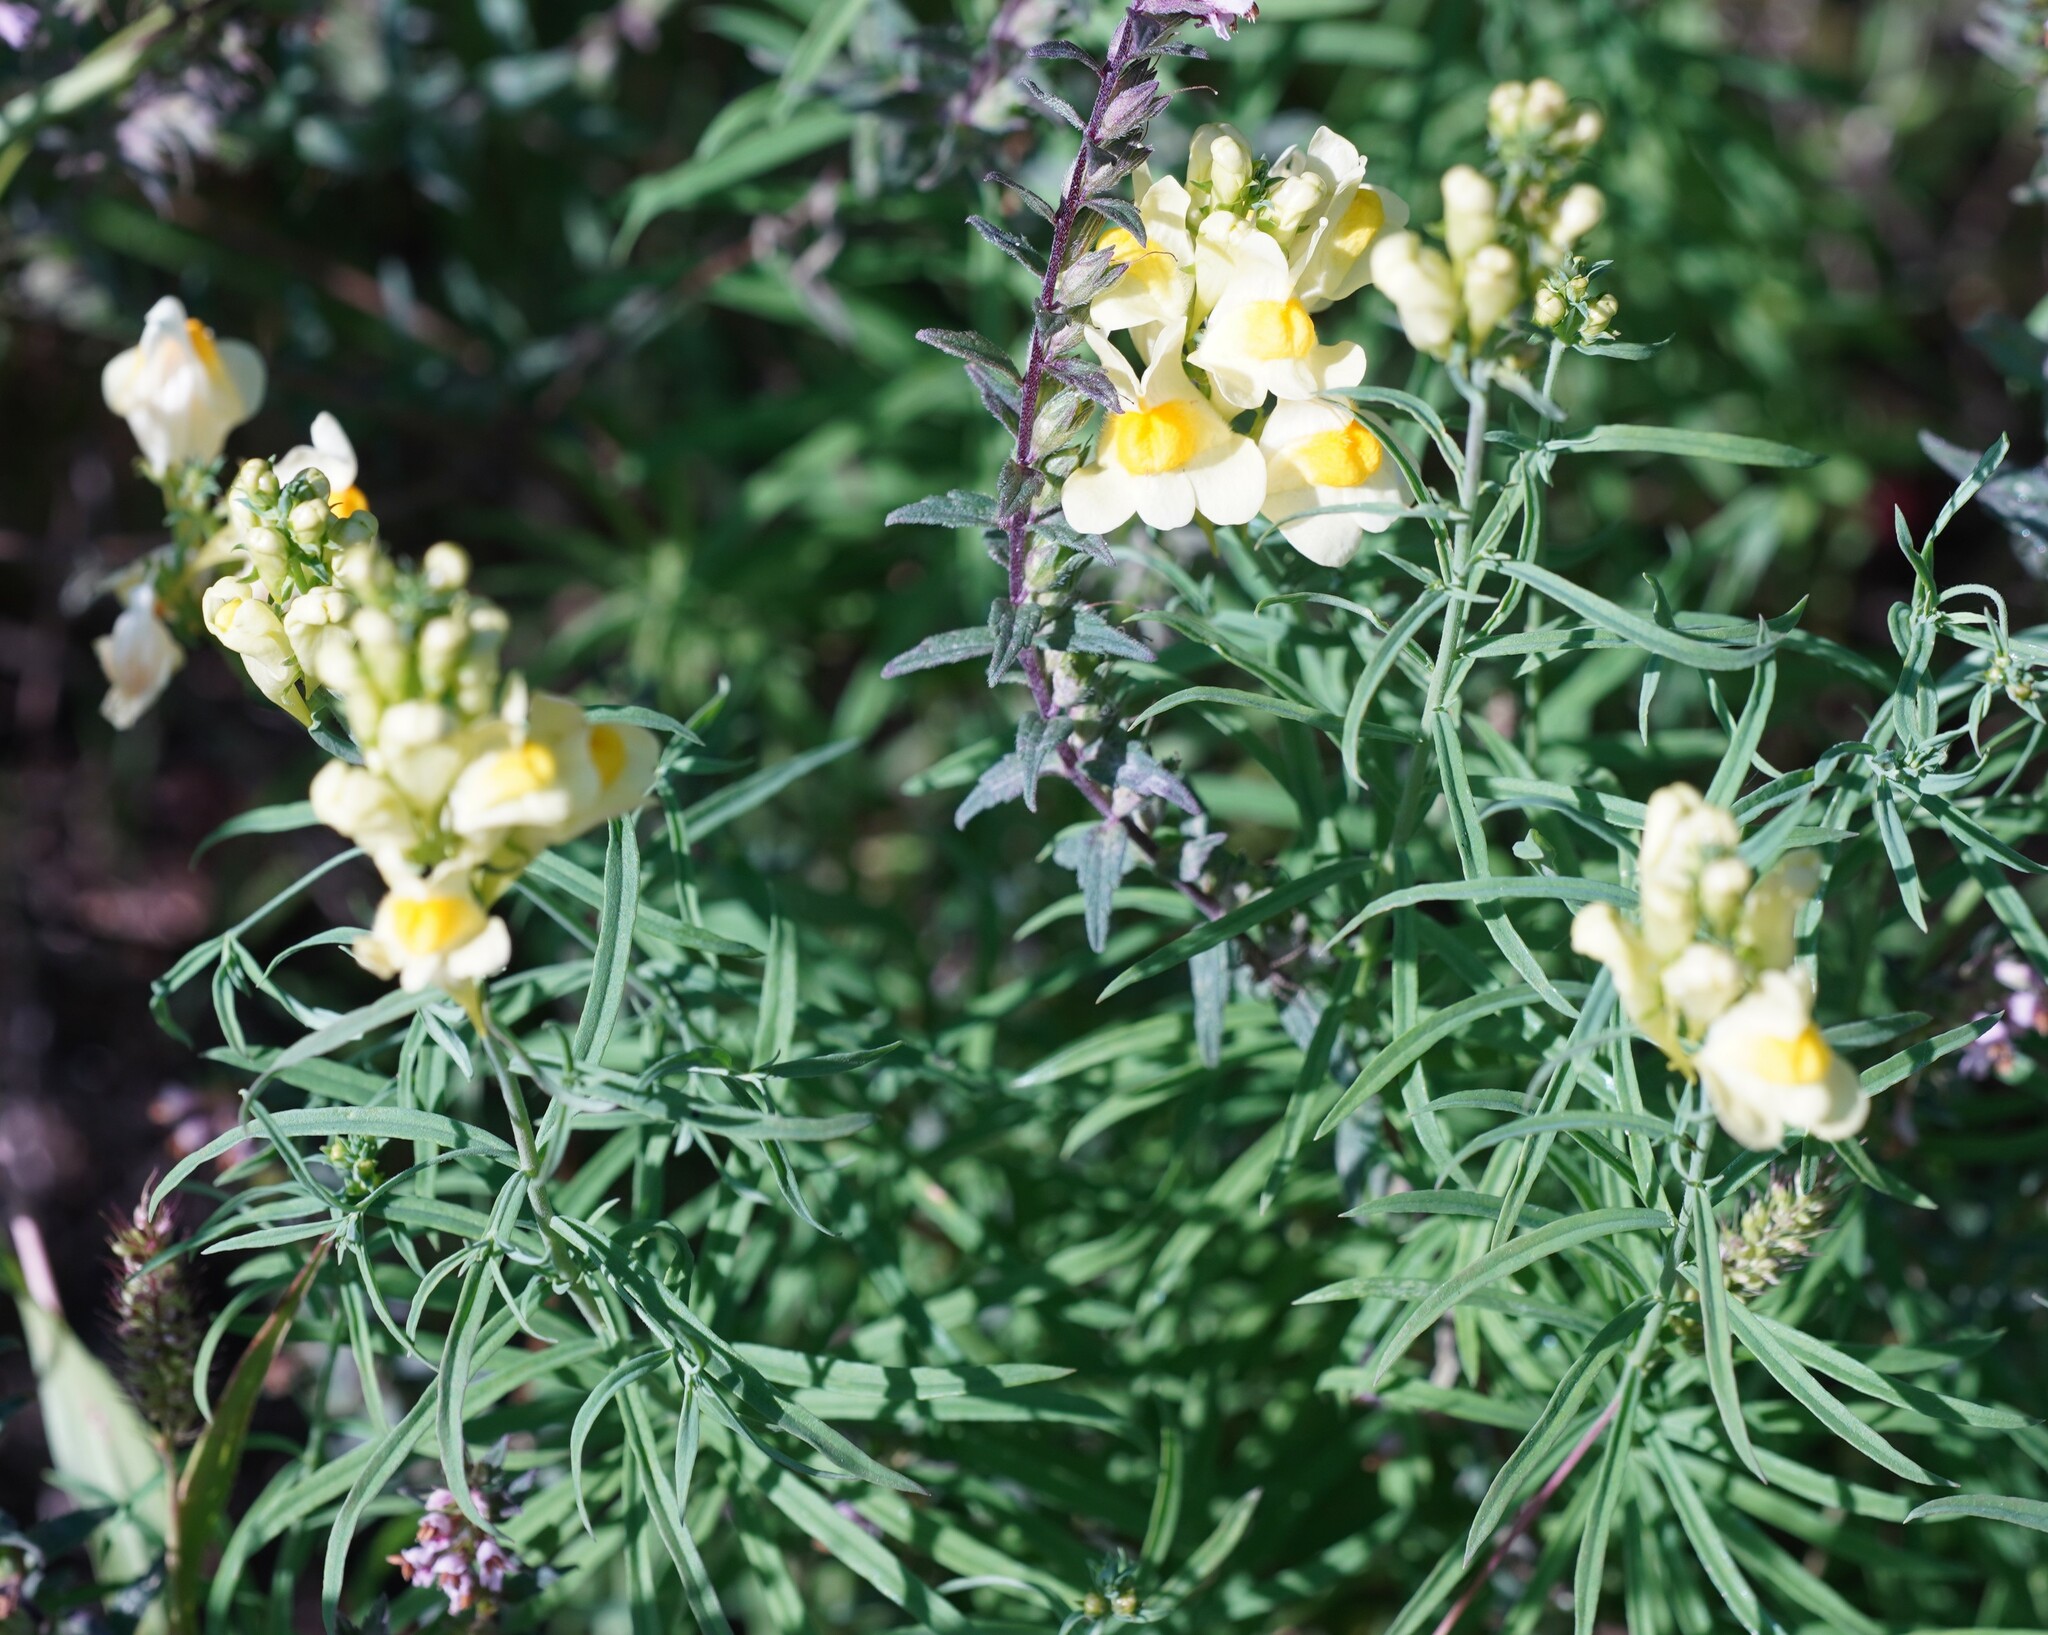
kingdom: Plantae
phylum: Tracheophyta
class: Magnoliopsida
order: Lamiales
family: Plantaginaceae
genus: Linaria
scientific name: Linaria vulgaris
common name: Butter and eggs
